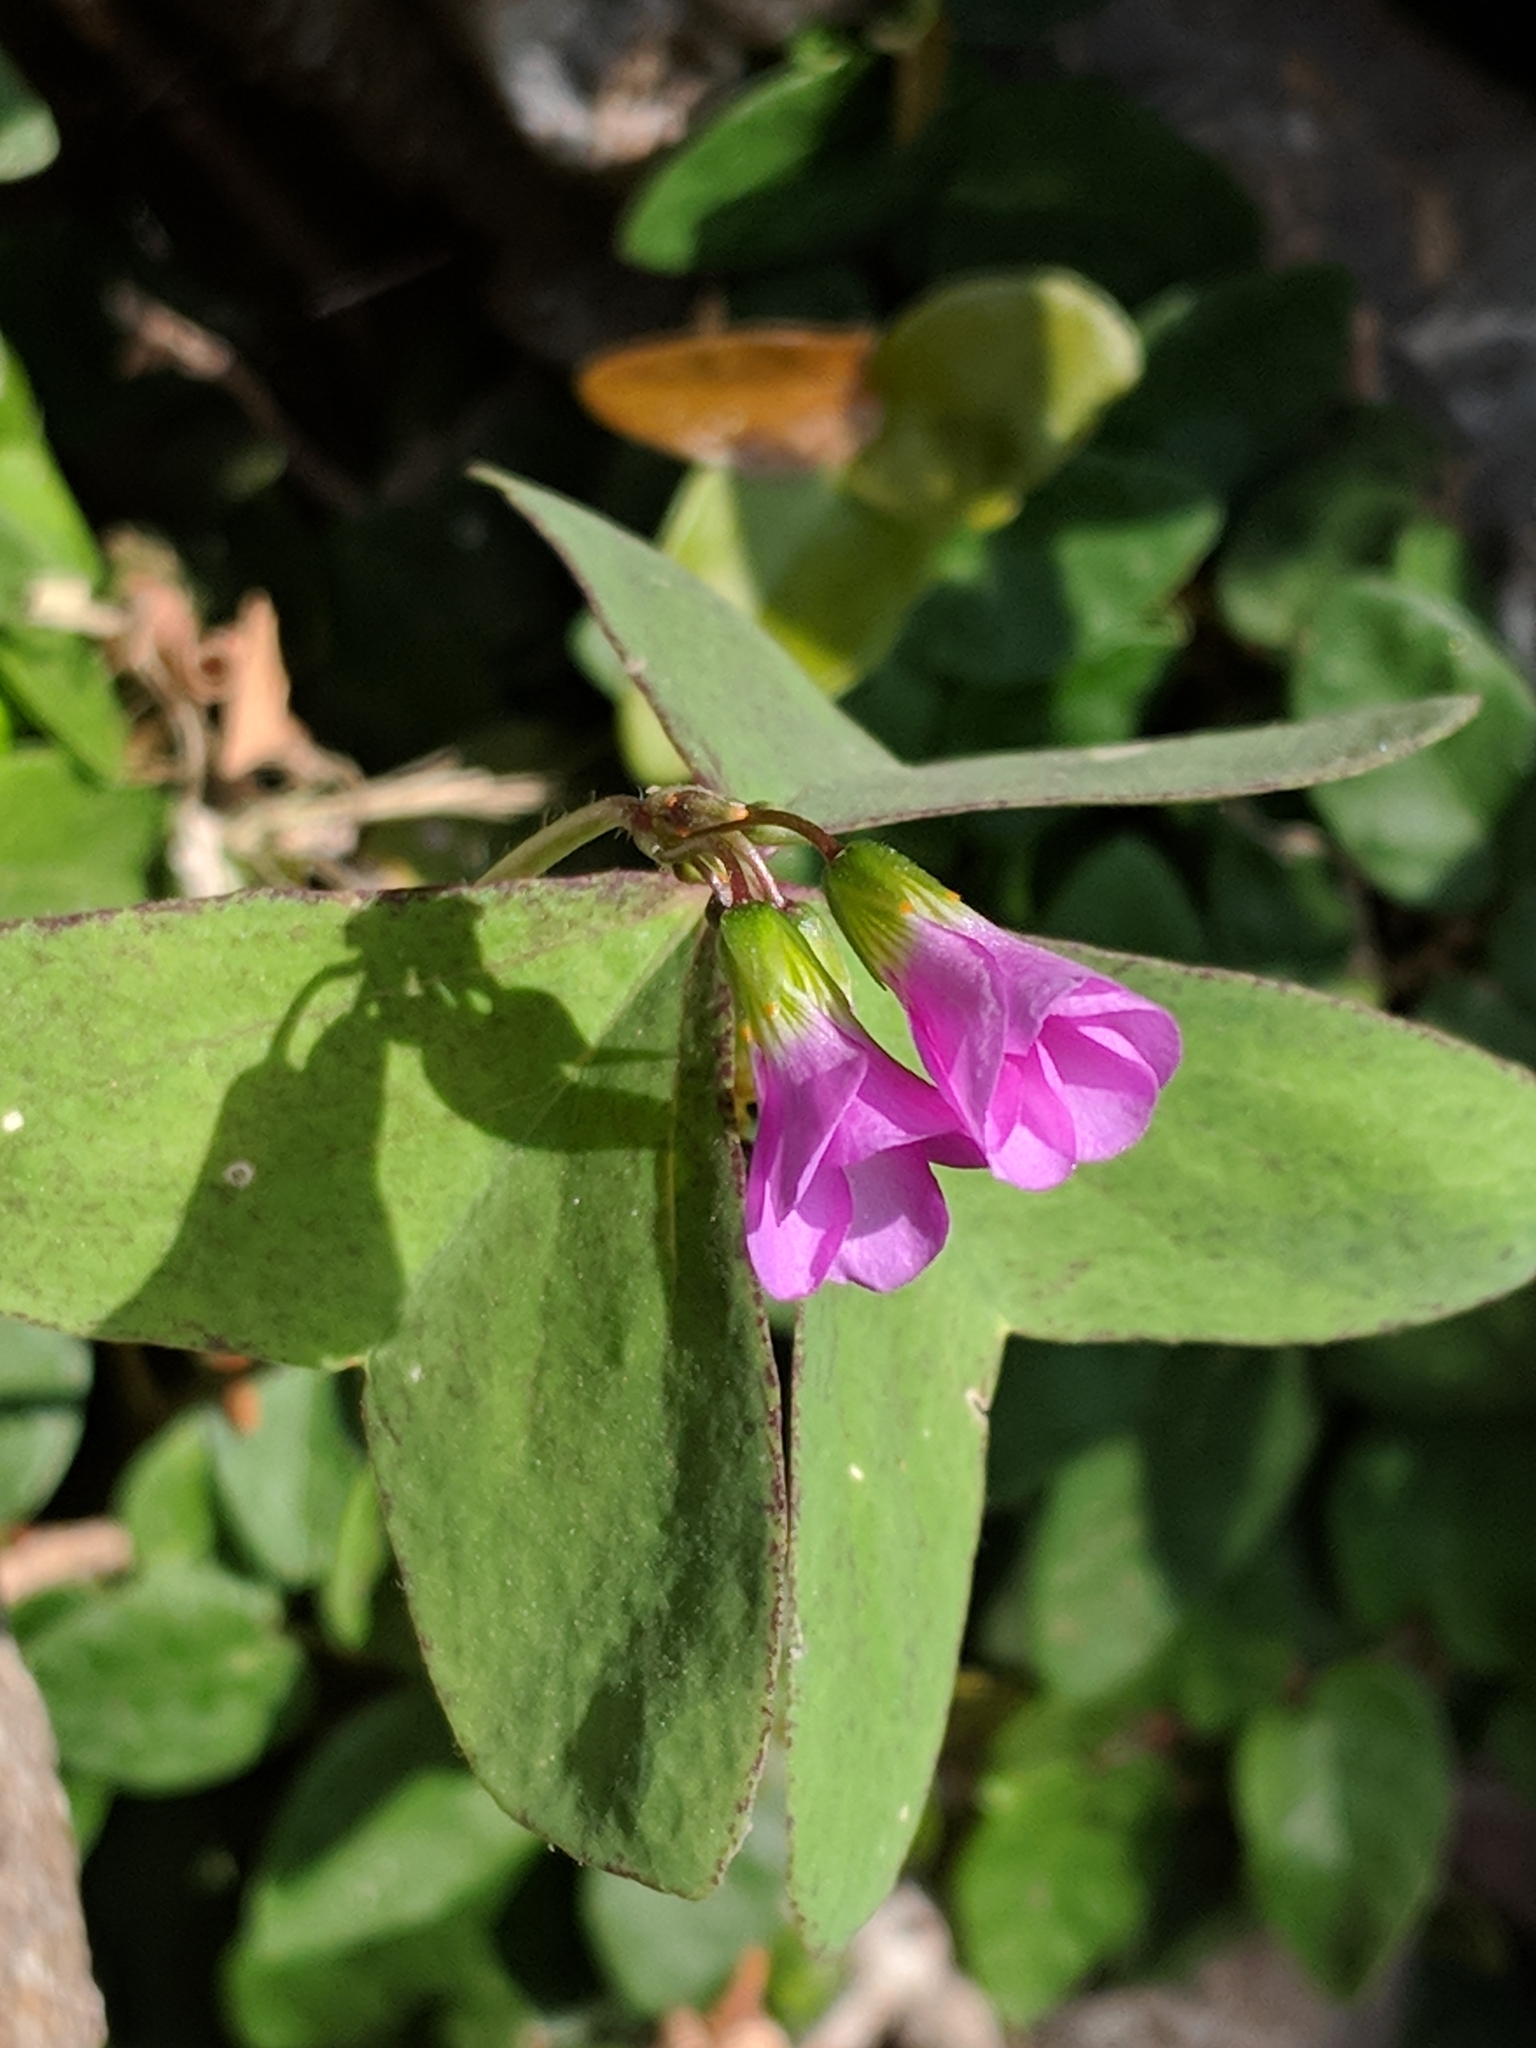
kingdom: Plantae
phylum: Tracheophyta
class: Magnoliopsida
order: Oxalidales
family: Oxalidaceae
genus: Oxalis
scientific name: Oxalis latifolia
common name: Garden pink-sorrel
